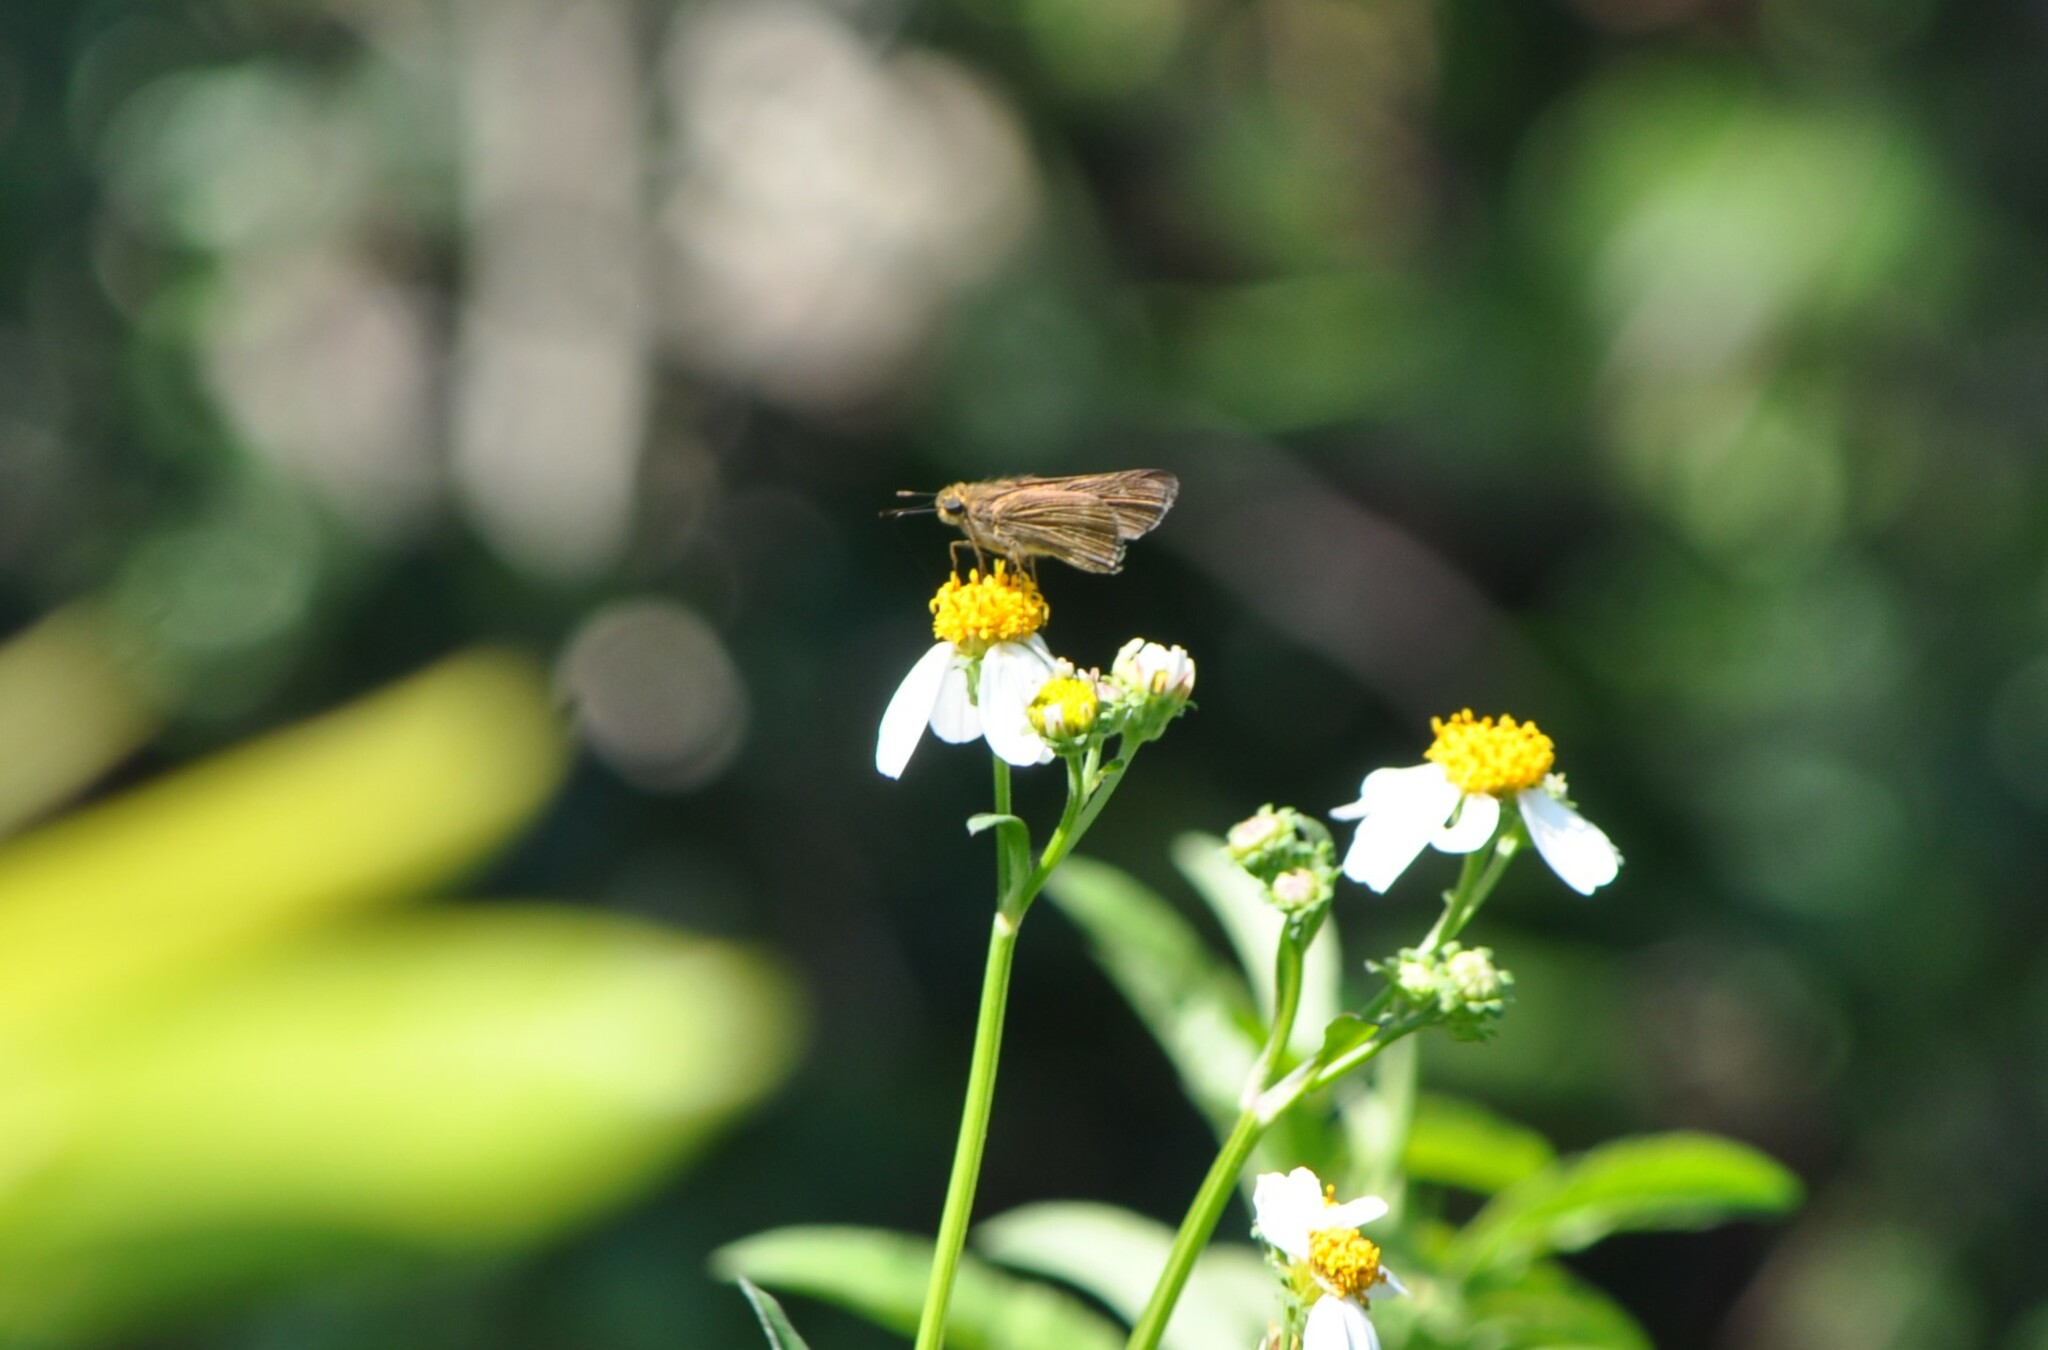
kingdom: Animalia
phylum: Arthropoda
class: Insecta
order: Lepidoptera
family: Hesperiidae
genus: Panoquina
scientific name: Panoquina ocola
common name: Ocola skipper
